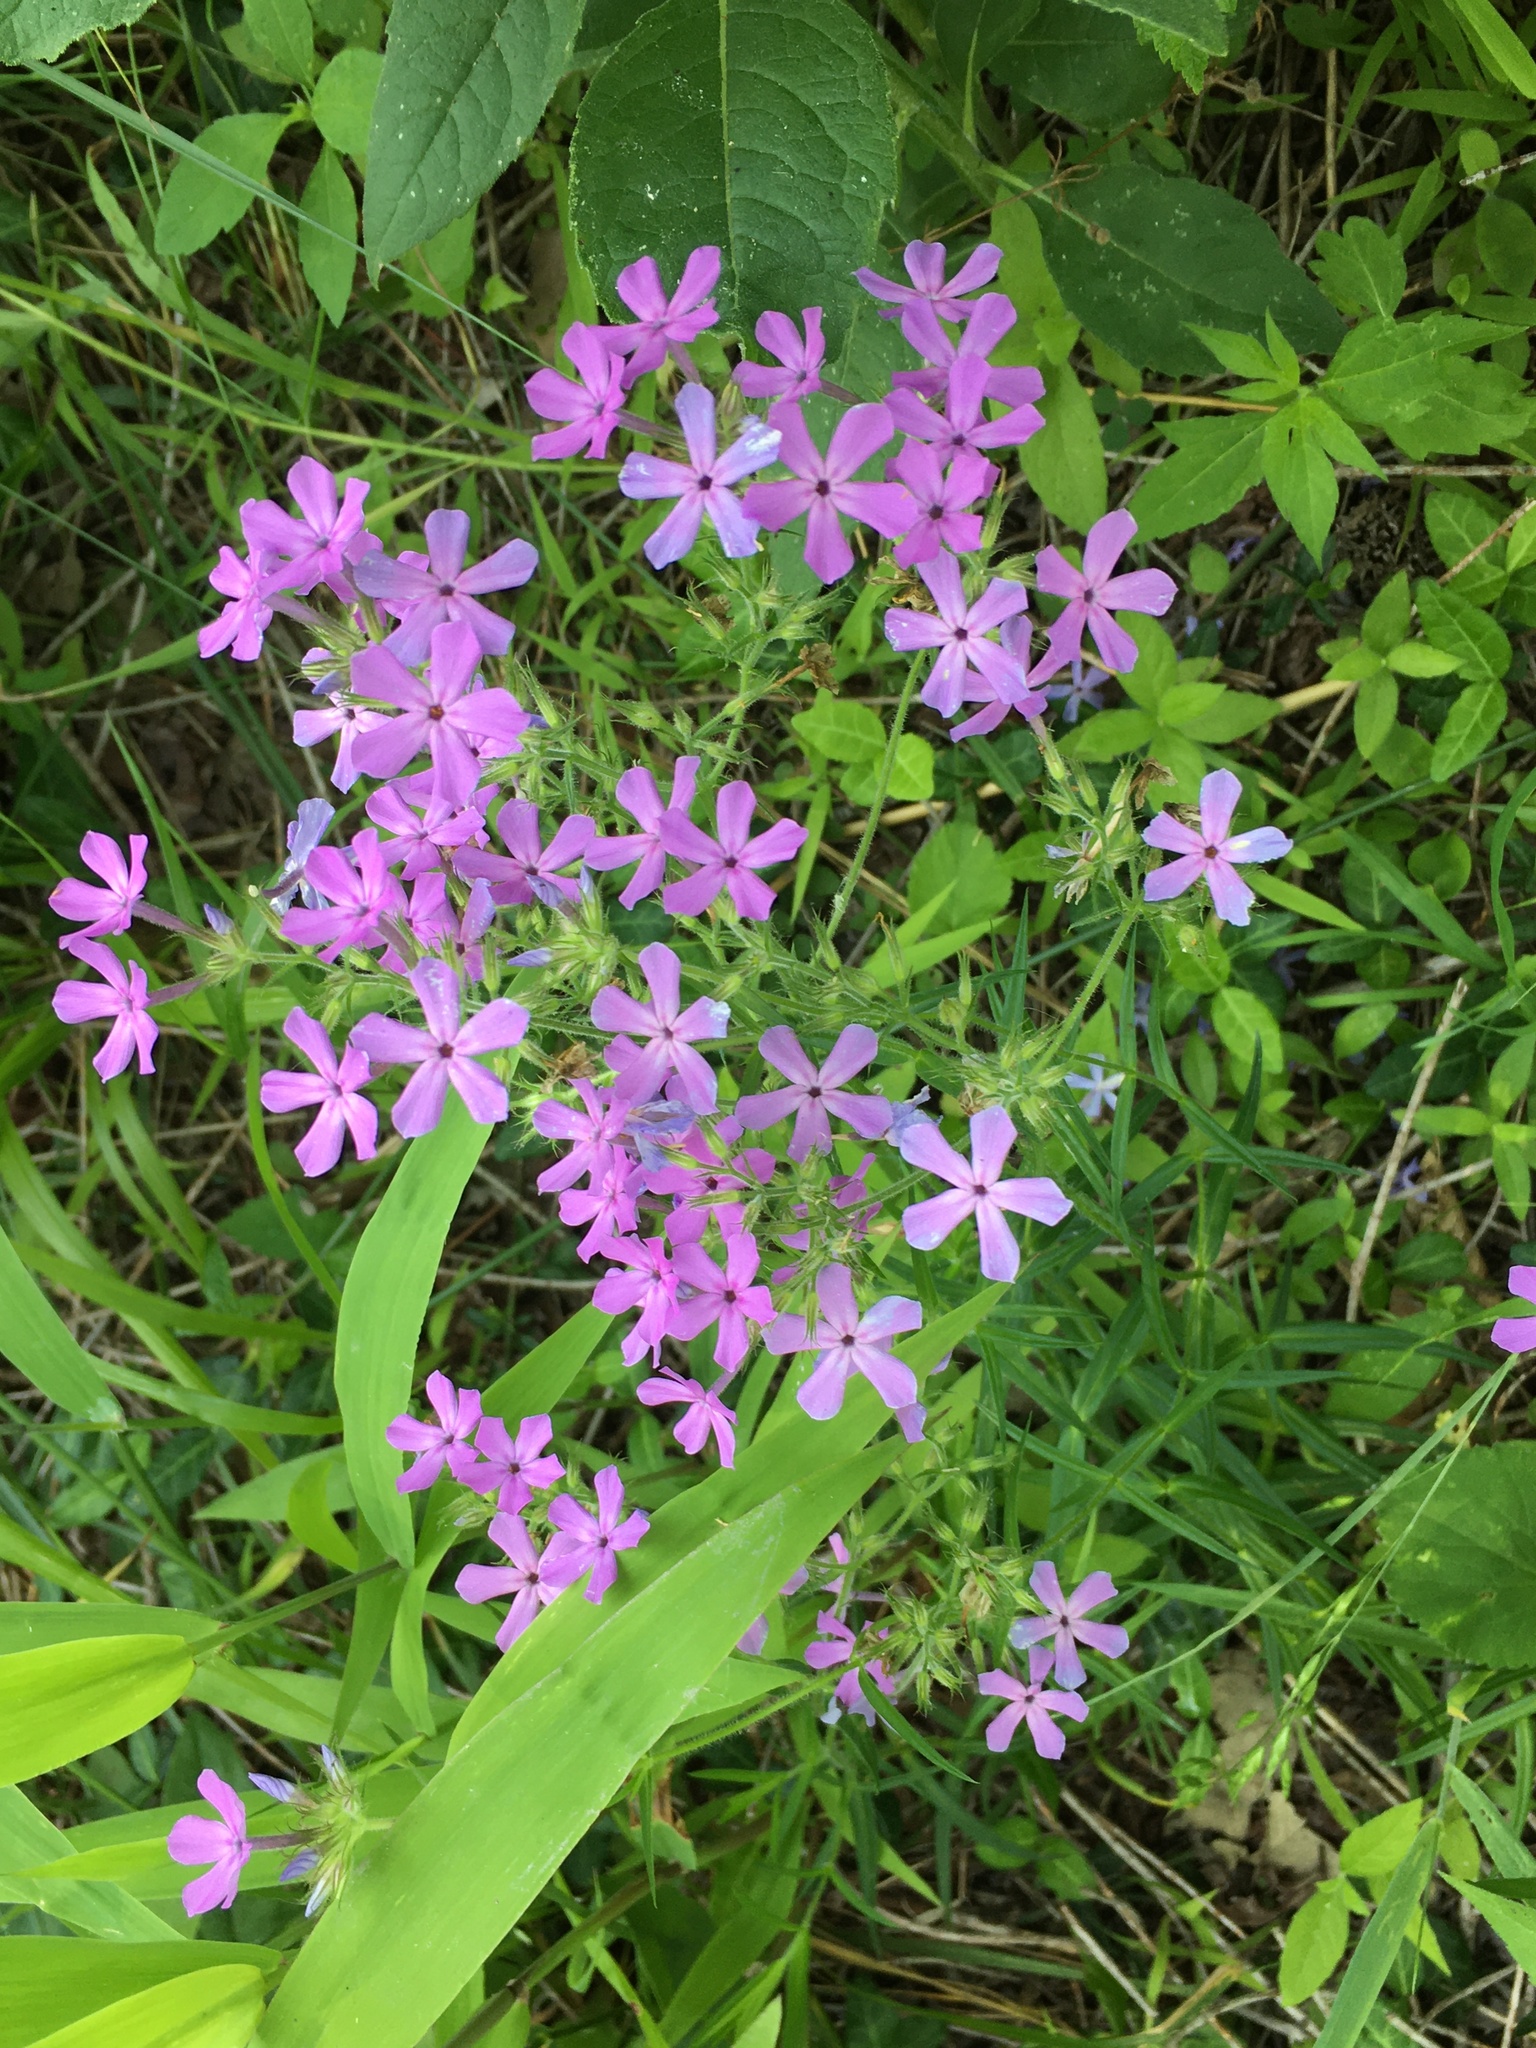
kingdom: Plantae
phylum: Tracheophyta
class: Magnoliopsida
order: Ericales
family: Polemoniaceae
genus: Phlox
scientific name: Phlox pilosa
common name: Prairie phlox
